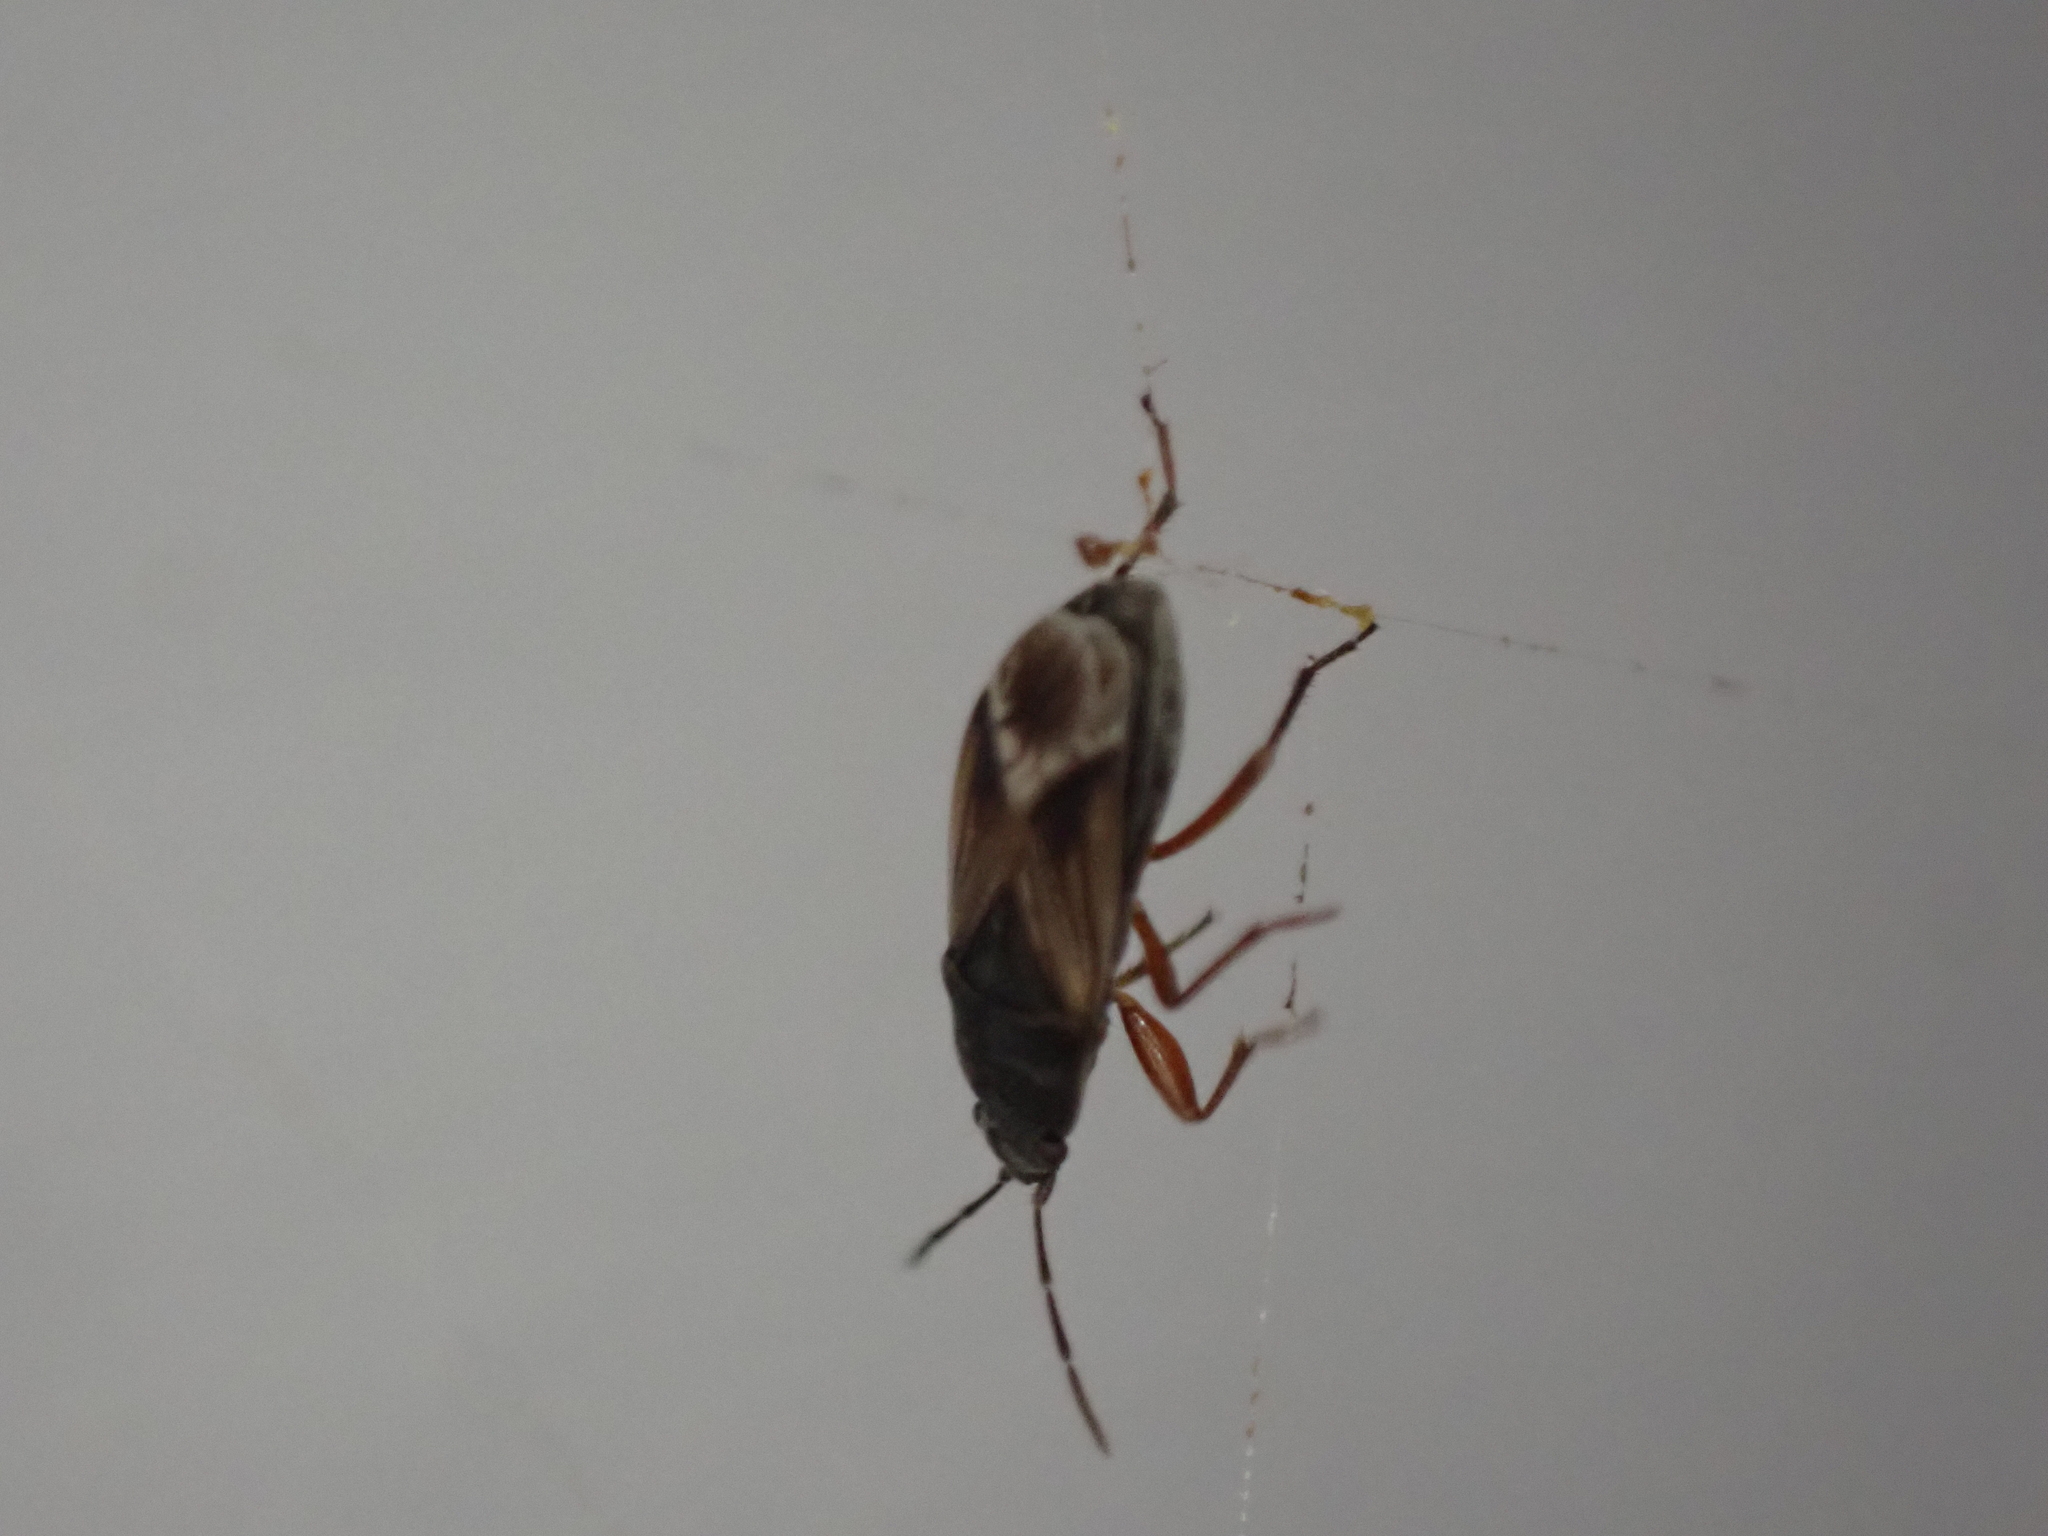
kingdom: Animalia
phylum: Arthropoda
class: Insecta
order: Hemiptera
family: Rhyparochromidae
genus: Malezonotus
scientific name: Malezonotus rufipes
